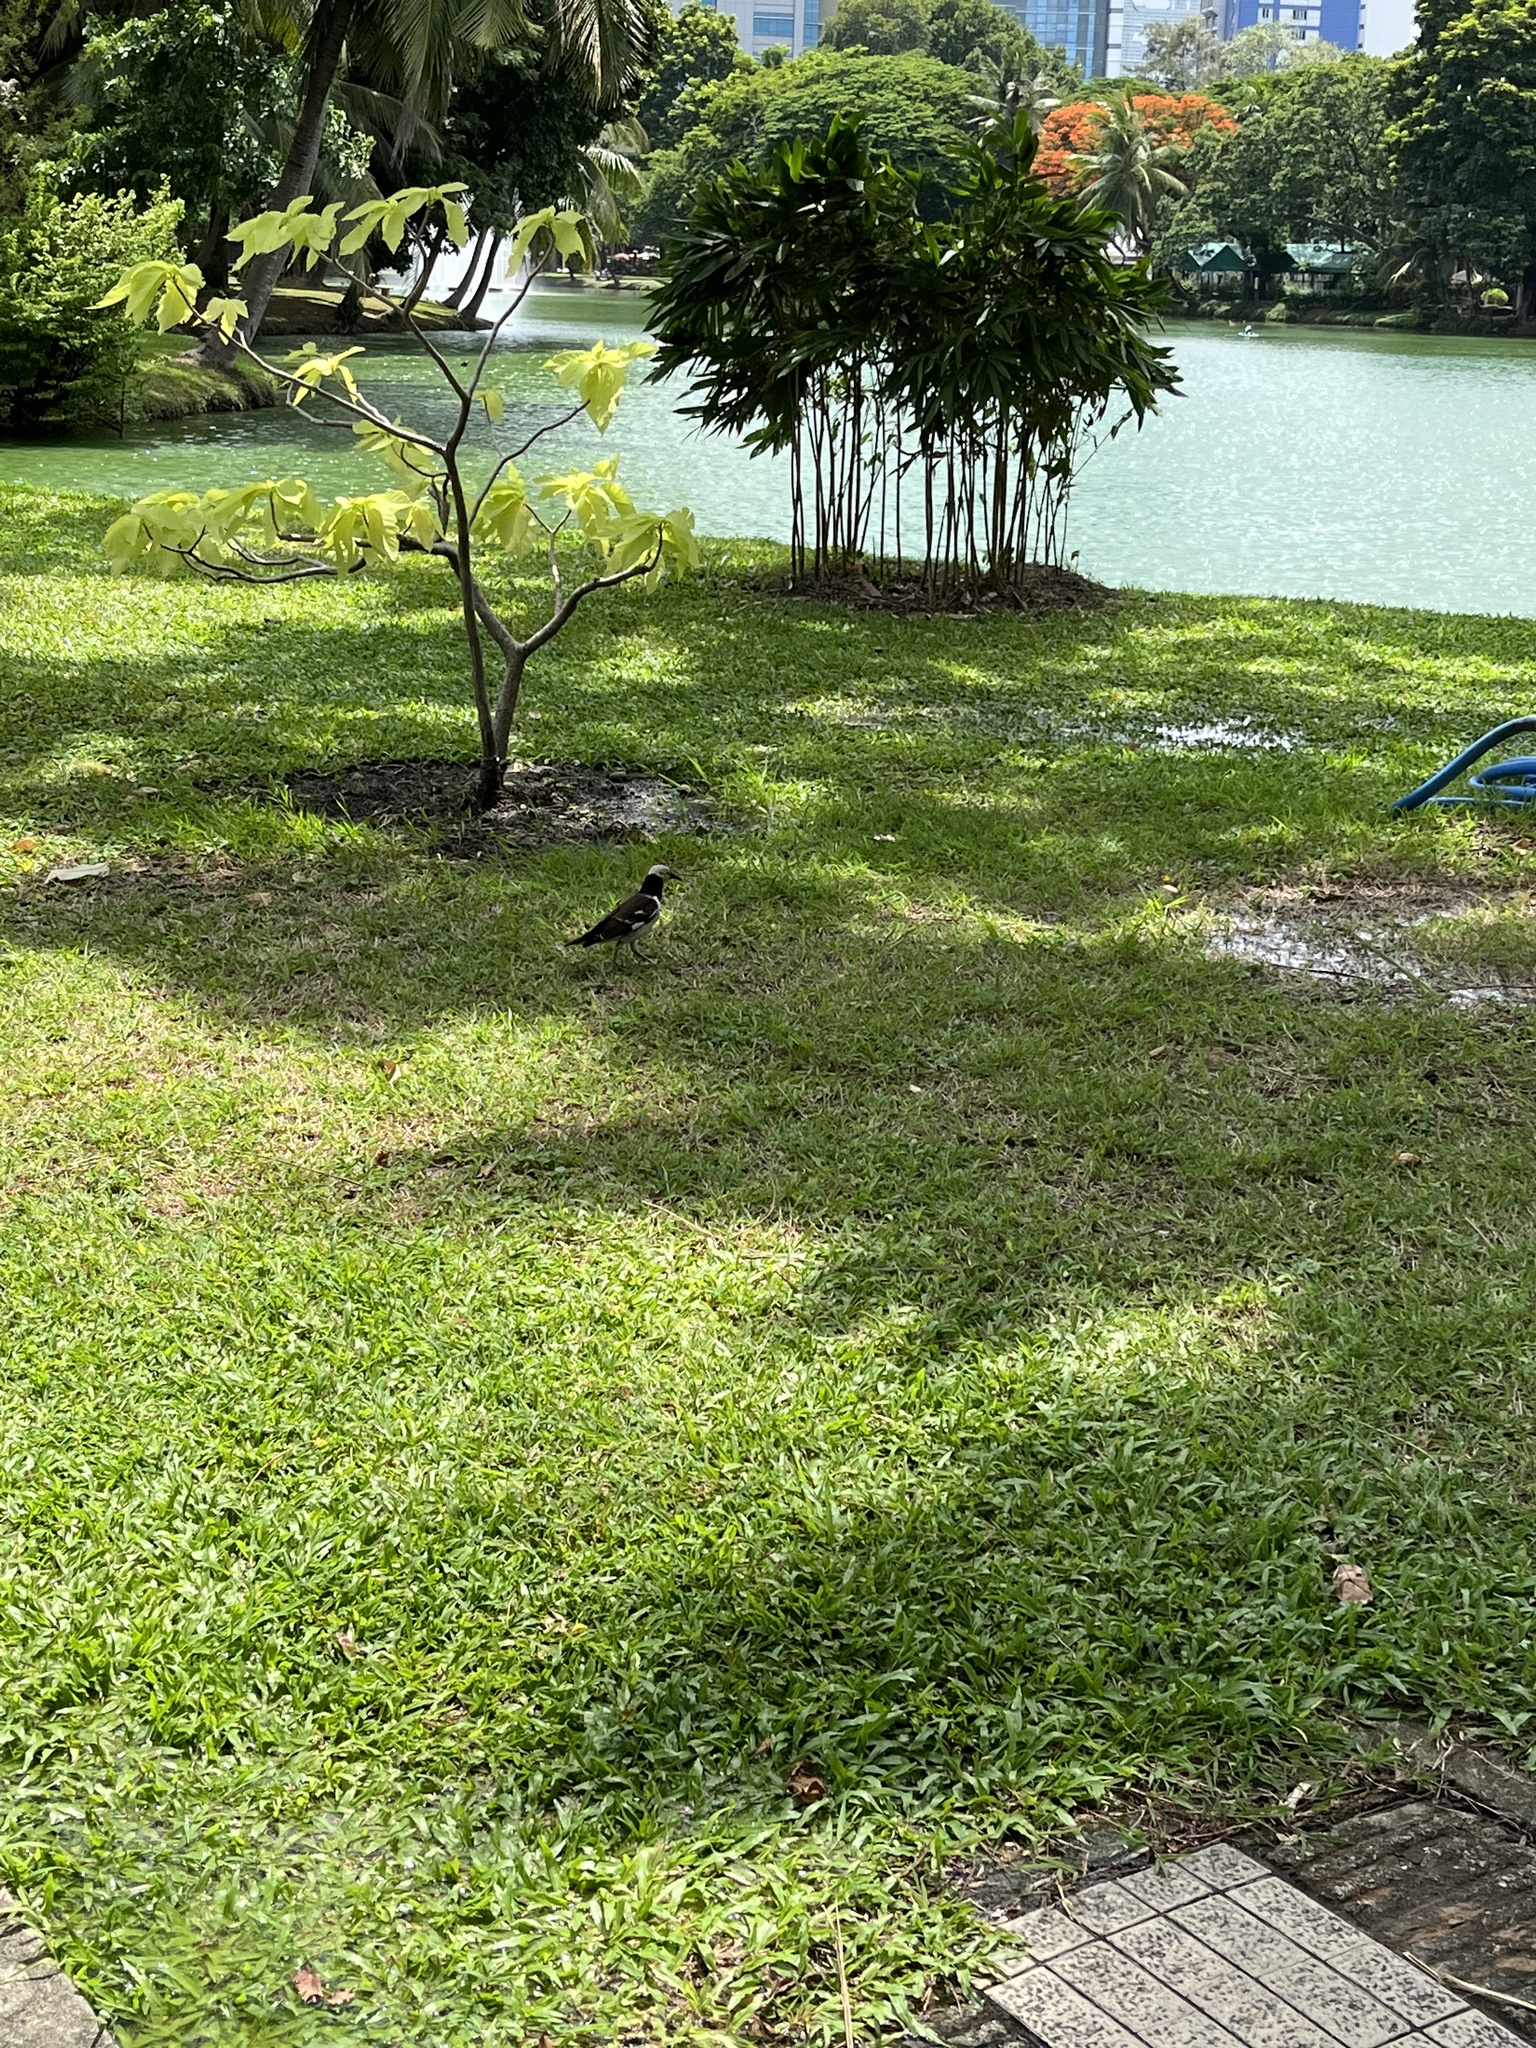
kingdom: Animalia
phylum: Chordata
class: Aves
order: Passeriformes
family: Sturnidae
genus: Gracupica
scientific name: Gracupica nigricollis
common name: Black-collared starling
